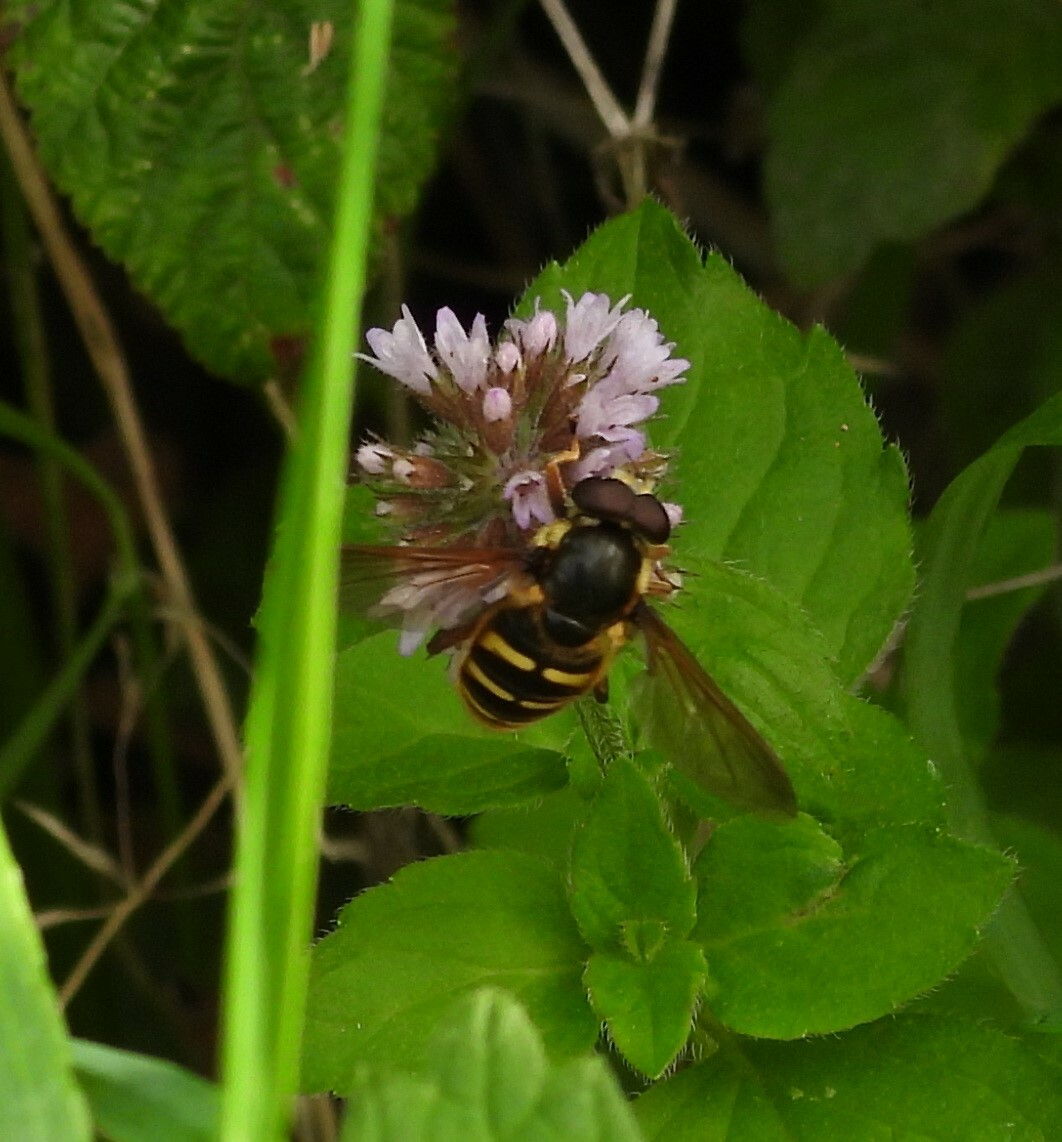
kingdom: Animalia
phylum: Arthropoda
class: Insecta
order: Diptera
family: Syrphidae
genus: Sericomyia
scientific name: Sericomyia silentis
